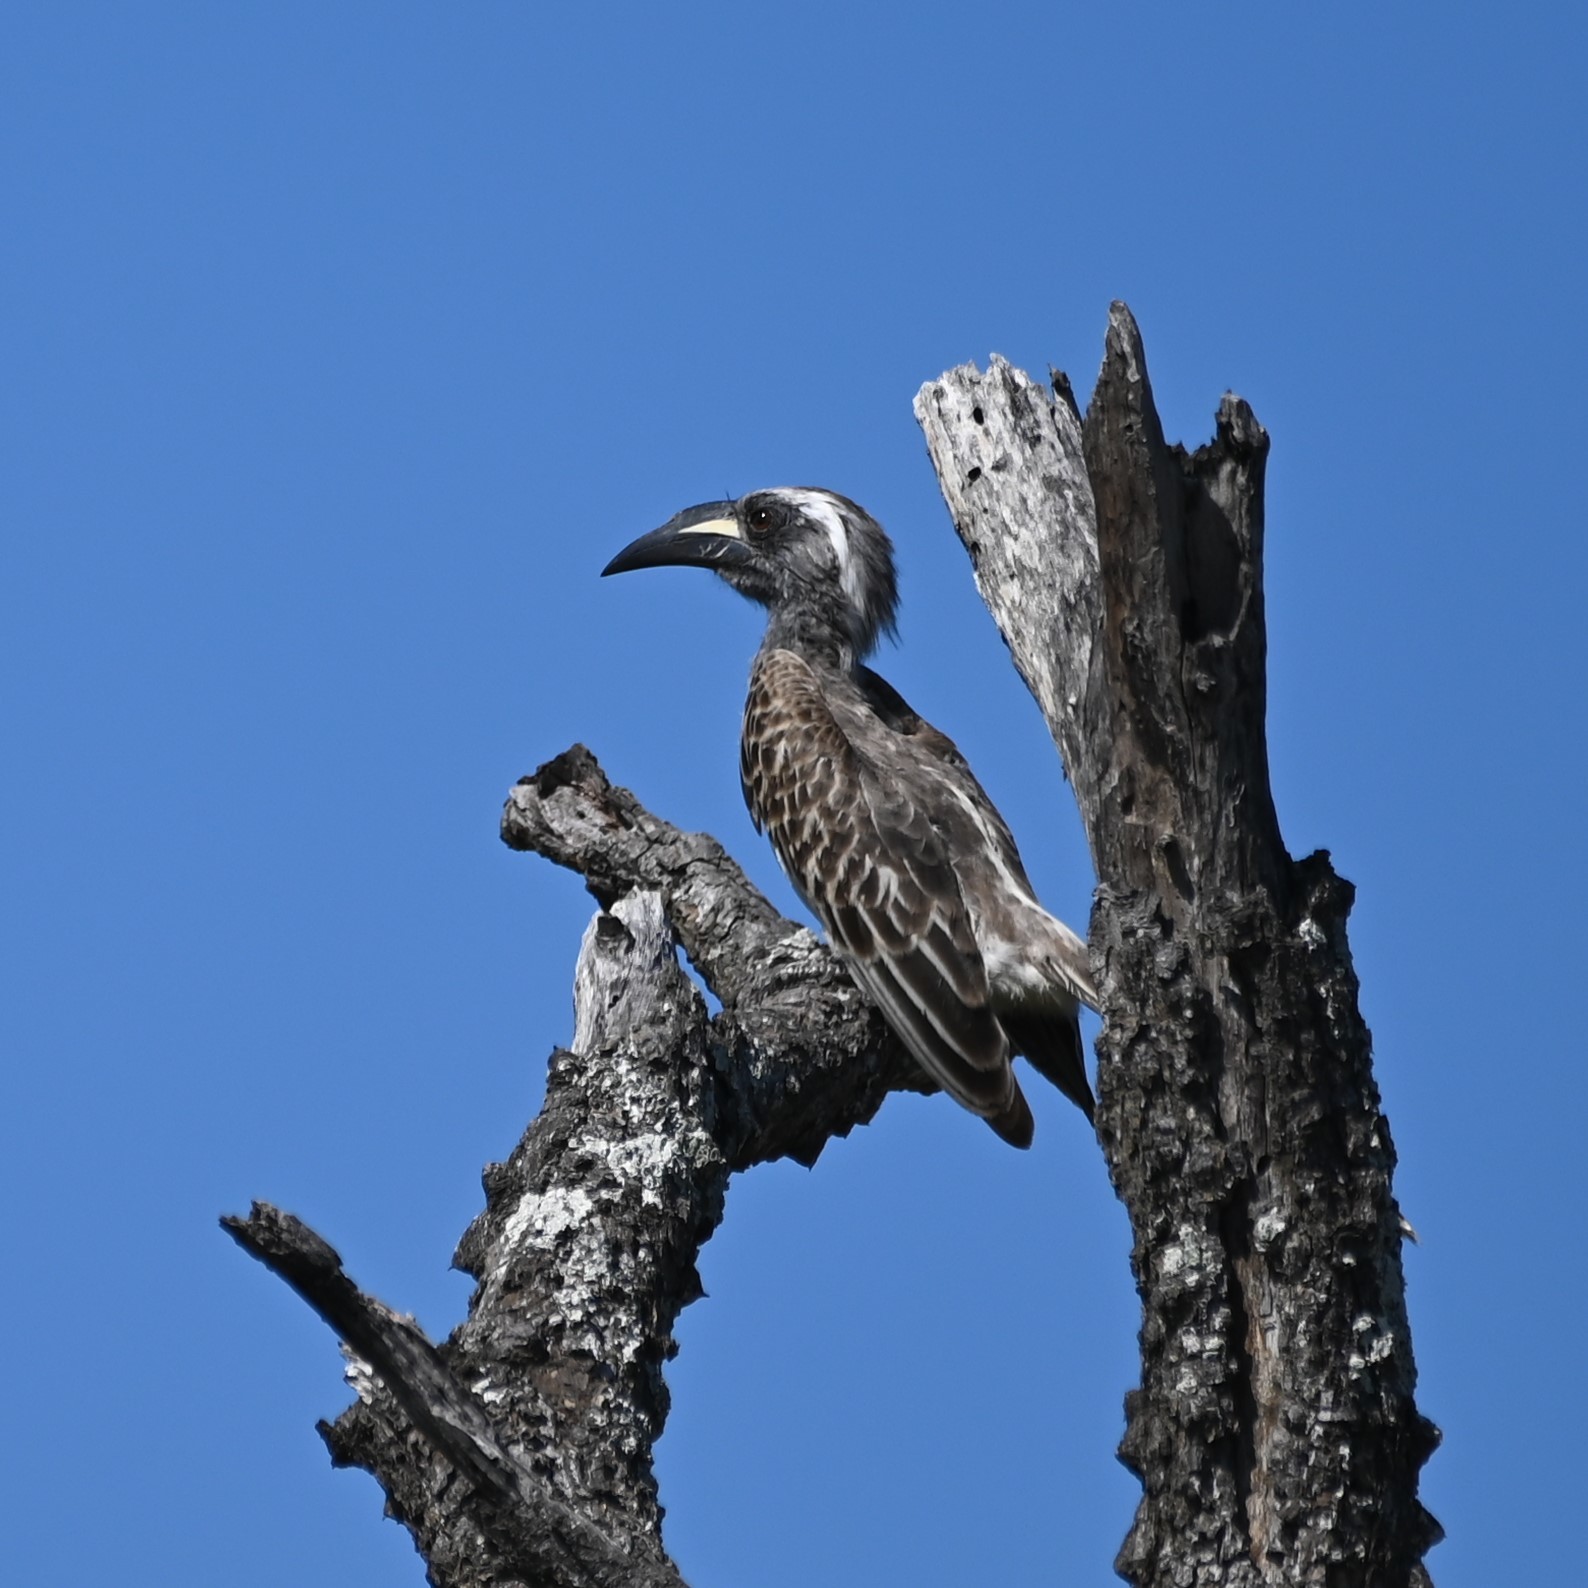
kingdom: Animalia
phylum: Chordata
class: Aves
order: Bucerotiformes
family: Bucerotidae
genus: Lophoceros
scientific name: Lophoceros nasutus
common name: African grey hornbill
